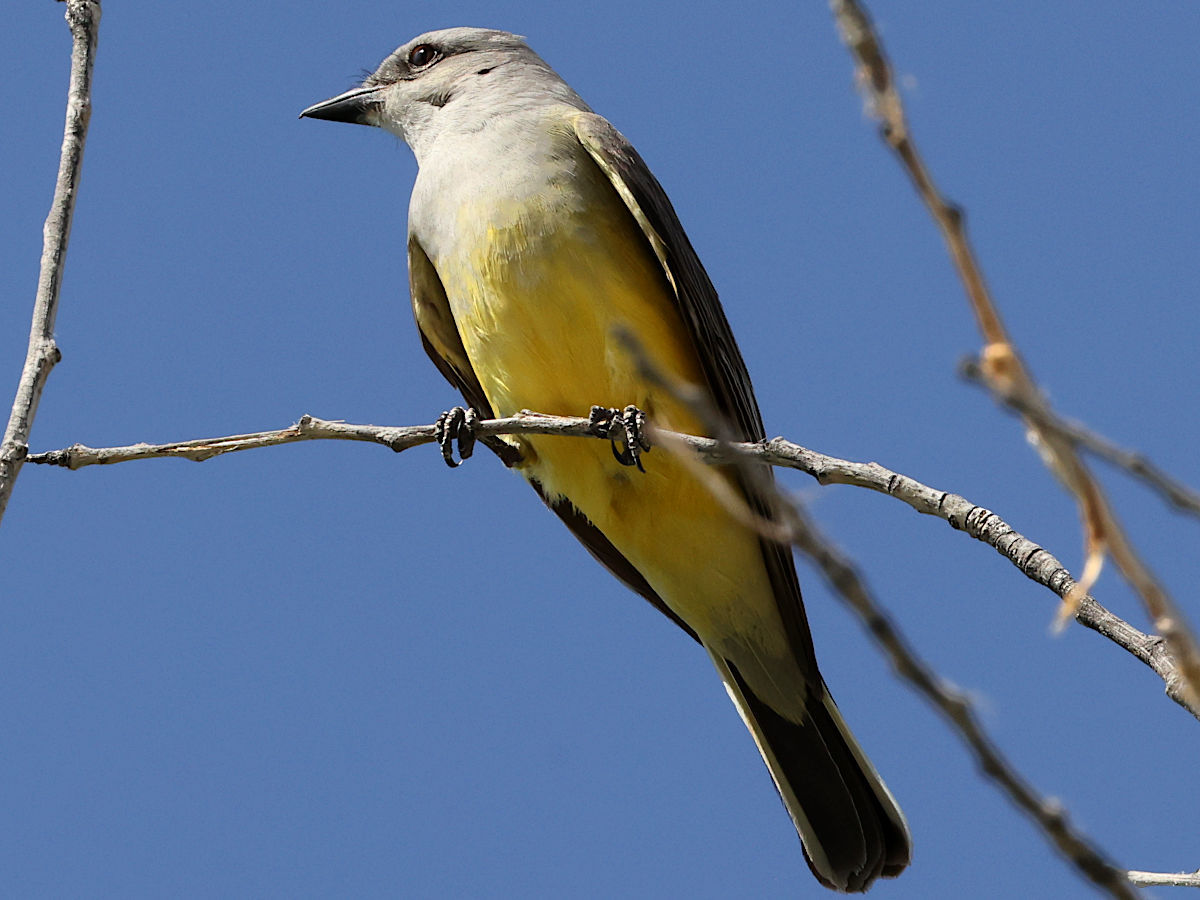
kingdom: Animalia
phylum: Chordata
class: Aves
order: Passeriformes
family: Tyrannidae
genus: Tyrannus
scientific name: Tyrannus verticalis
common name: Western kingbird
